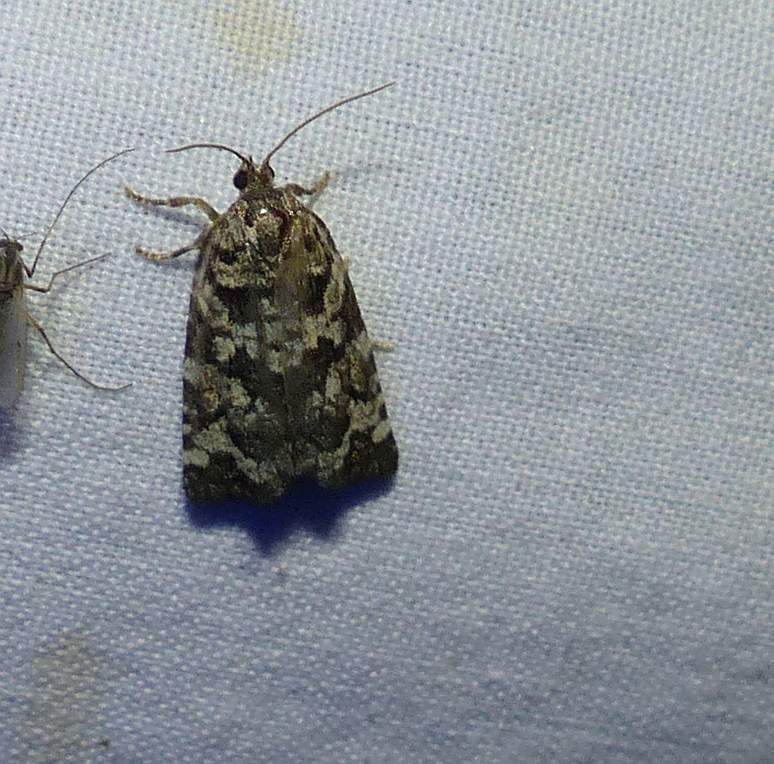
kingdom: Animalia
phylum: Arthropoda
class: Insecta
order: Lepidoptera
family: Tortricidae
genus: Archips
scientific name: Archips packardiana
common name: Spring spruce needle moth
